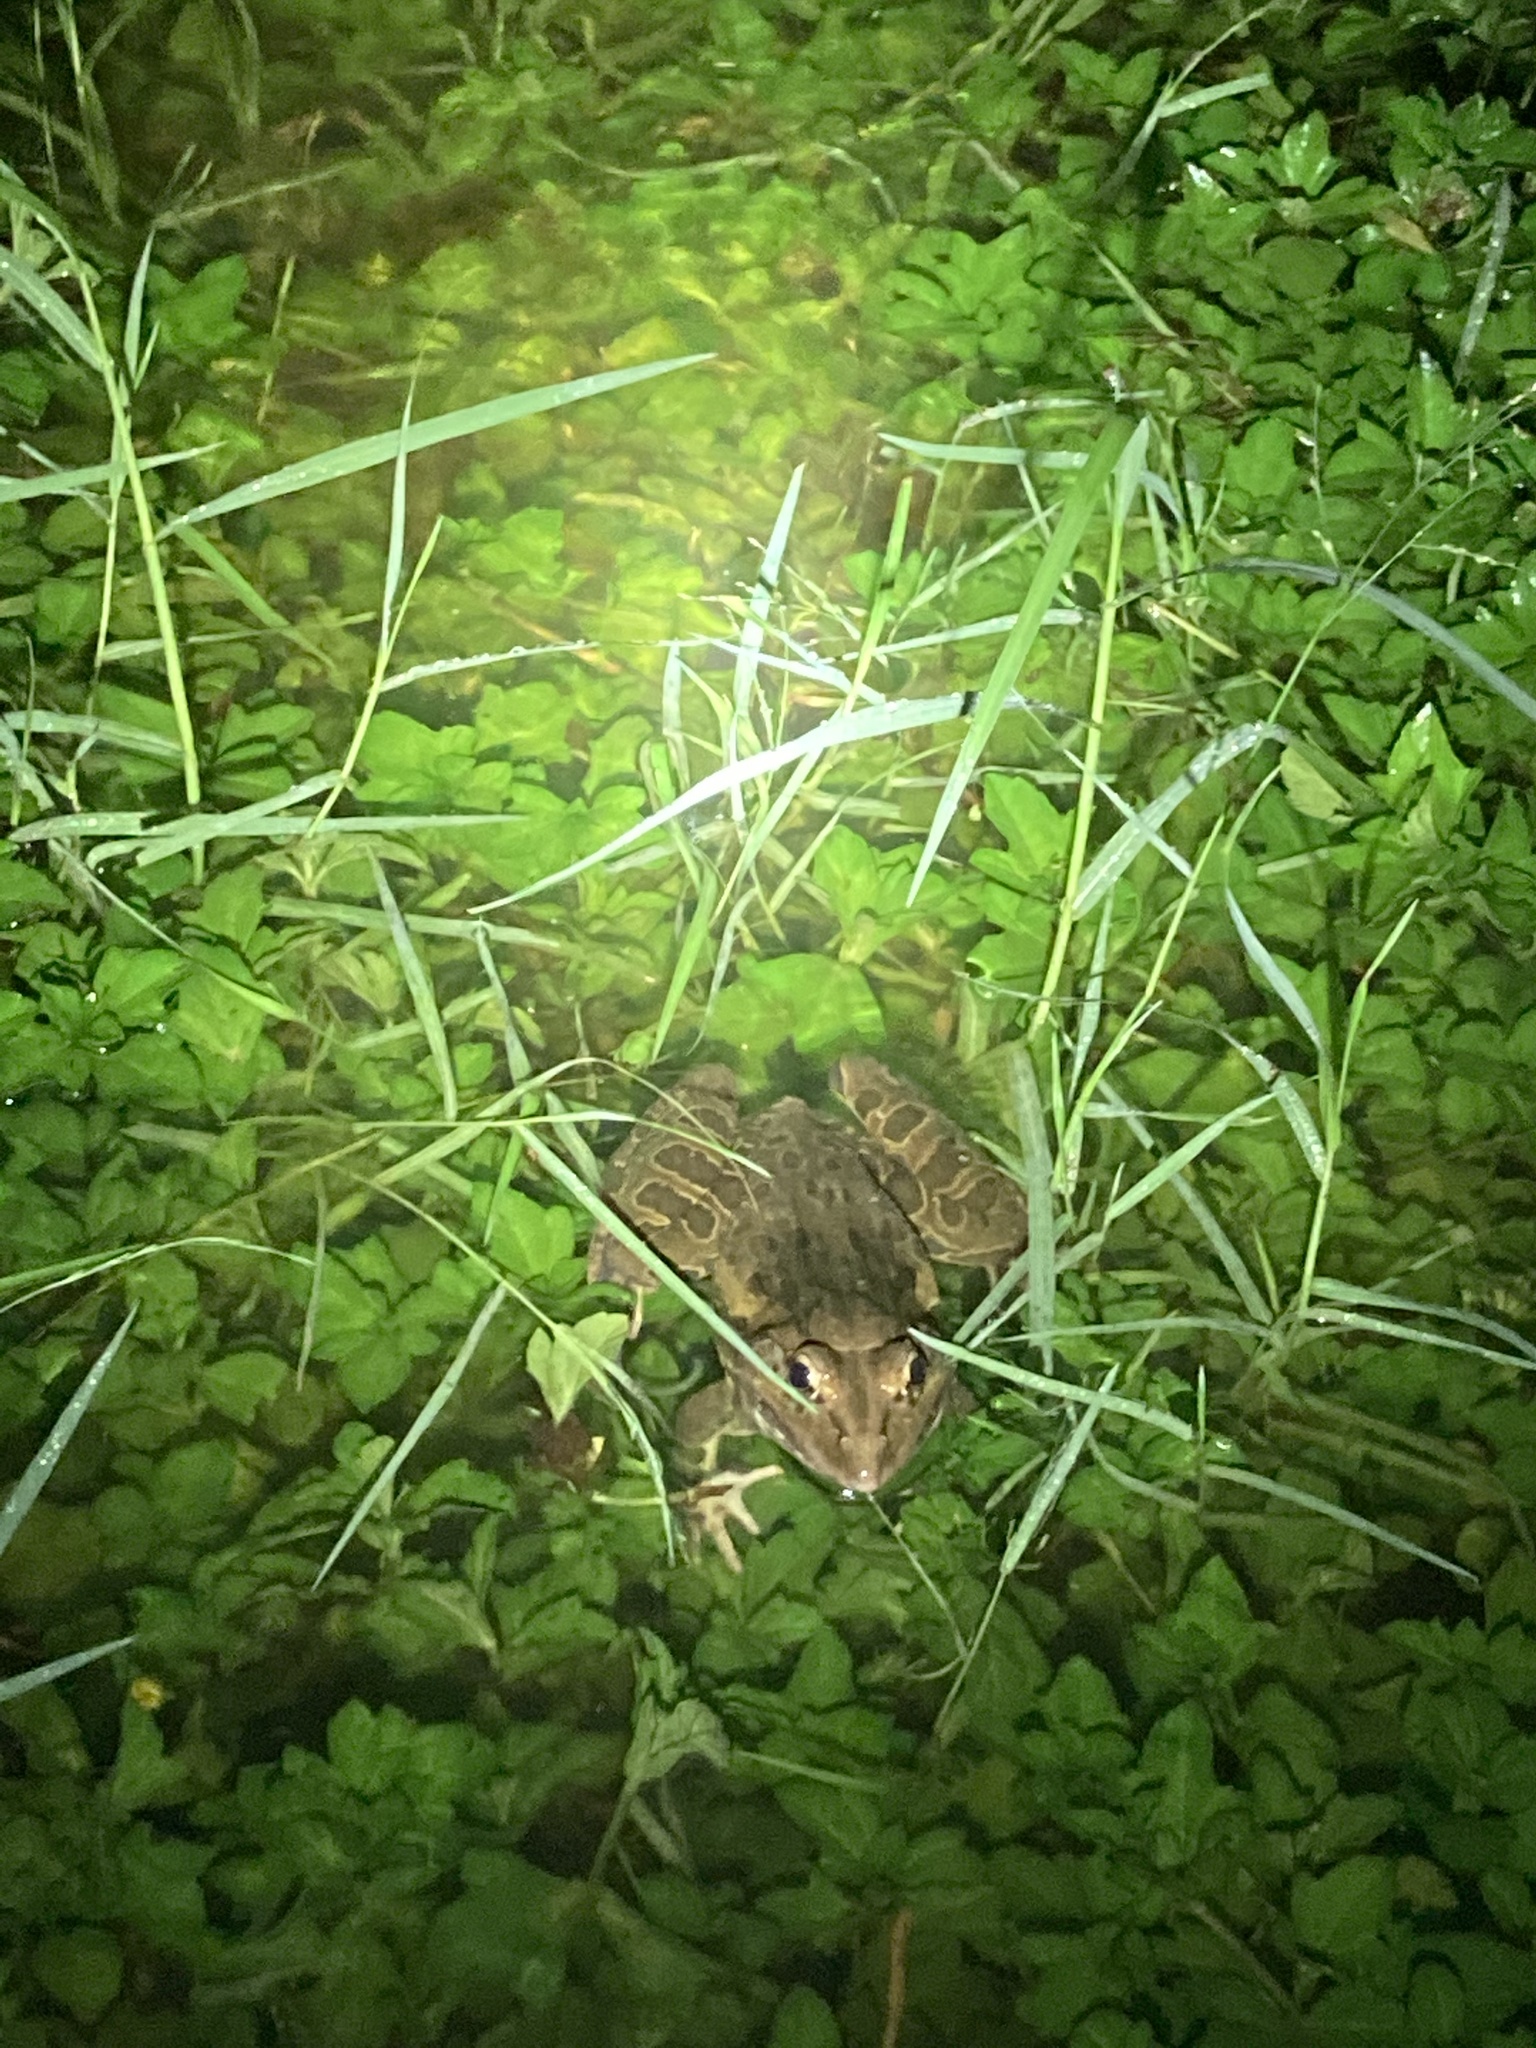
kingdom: Animalia
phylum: Chordata
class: Amphibia
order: Anura
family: Dicroglossidae
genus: Hoplobatrachus
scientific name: Hoplobatrachus tigerinus
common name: Indian bullfrog
